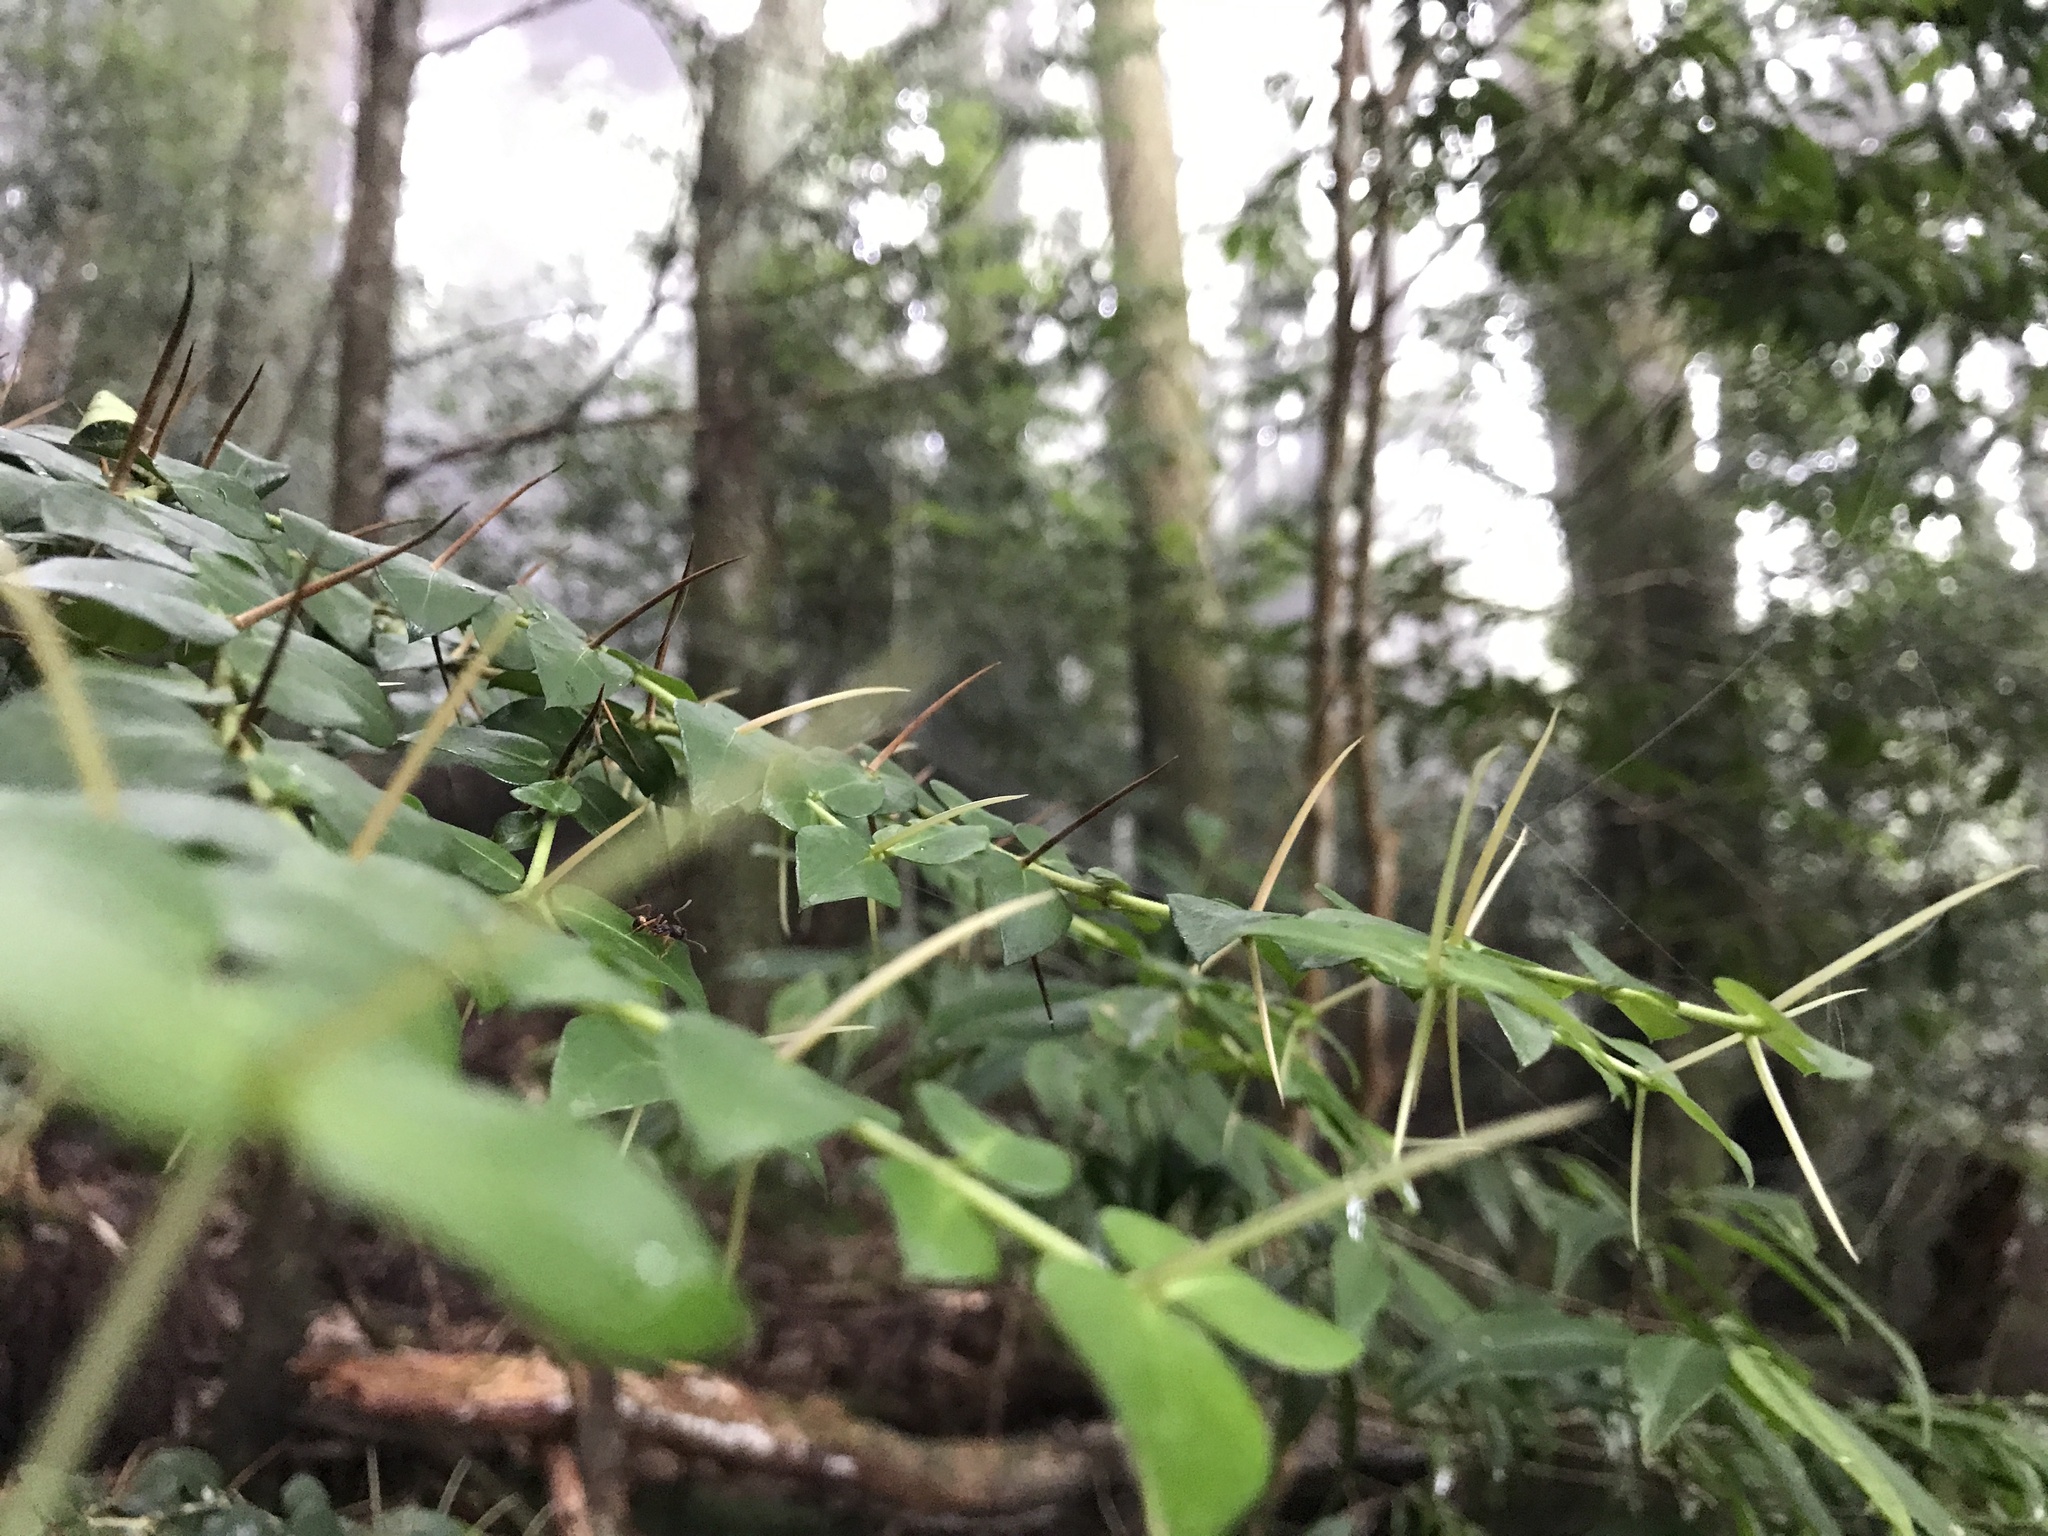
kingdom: Plantae
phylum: Tracheophyta
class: Magnoliopsida
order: Gentianales
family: Rubiaceae
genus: Damnacanthus
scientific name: Damnacanthus indicus
